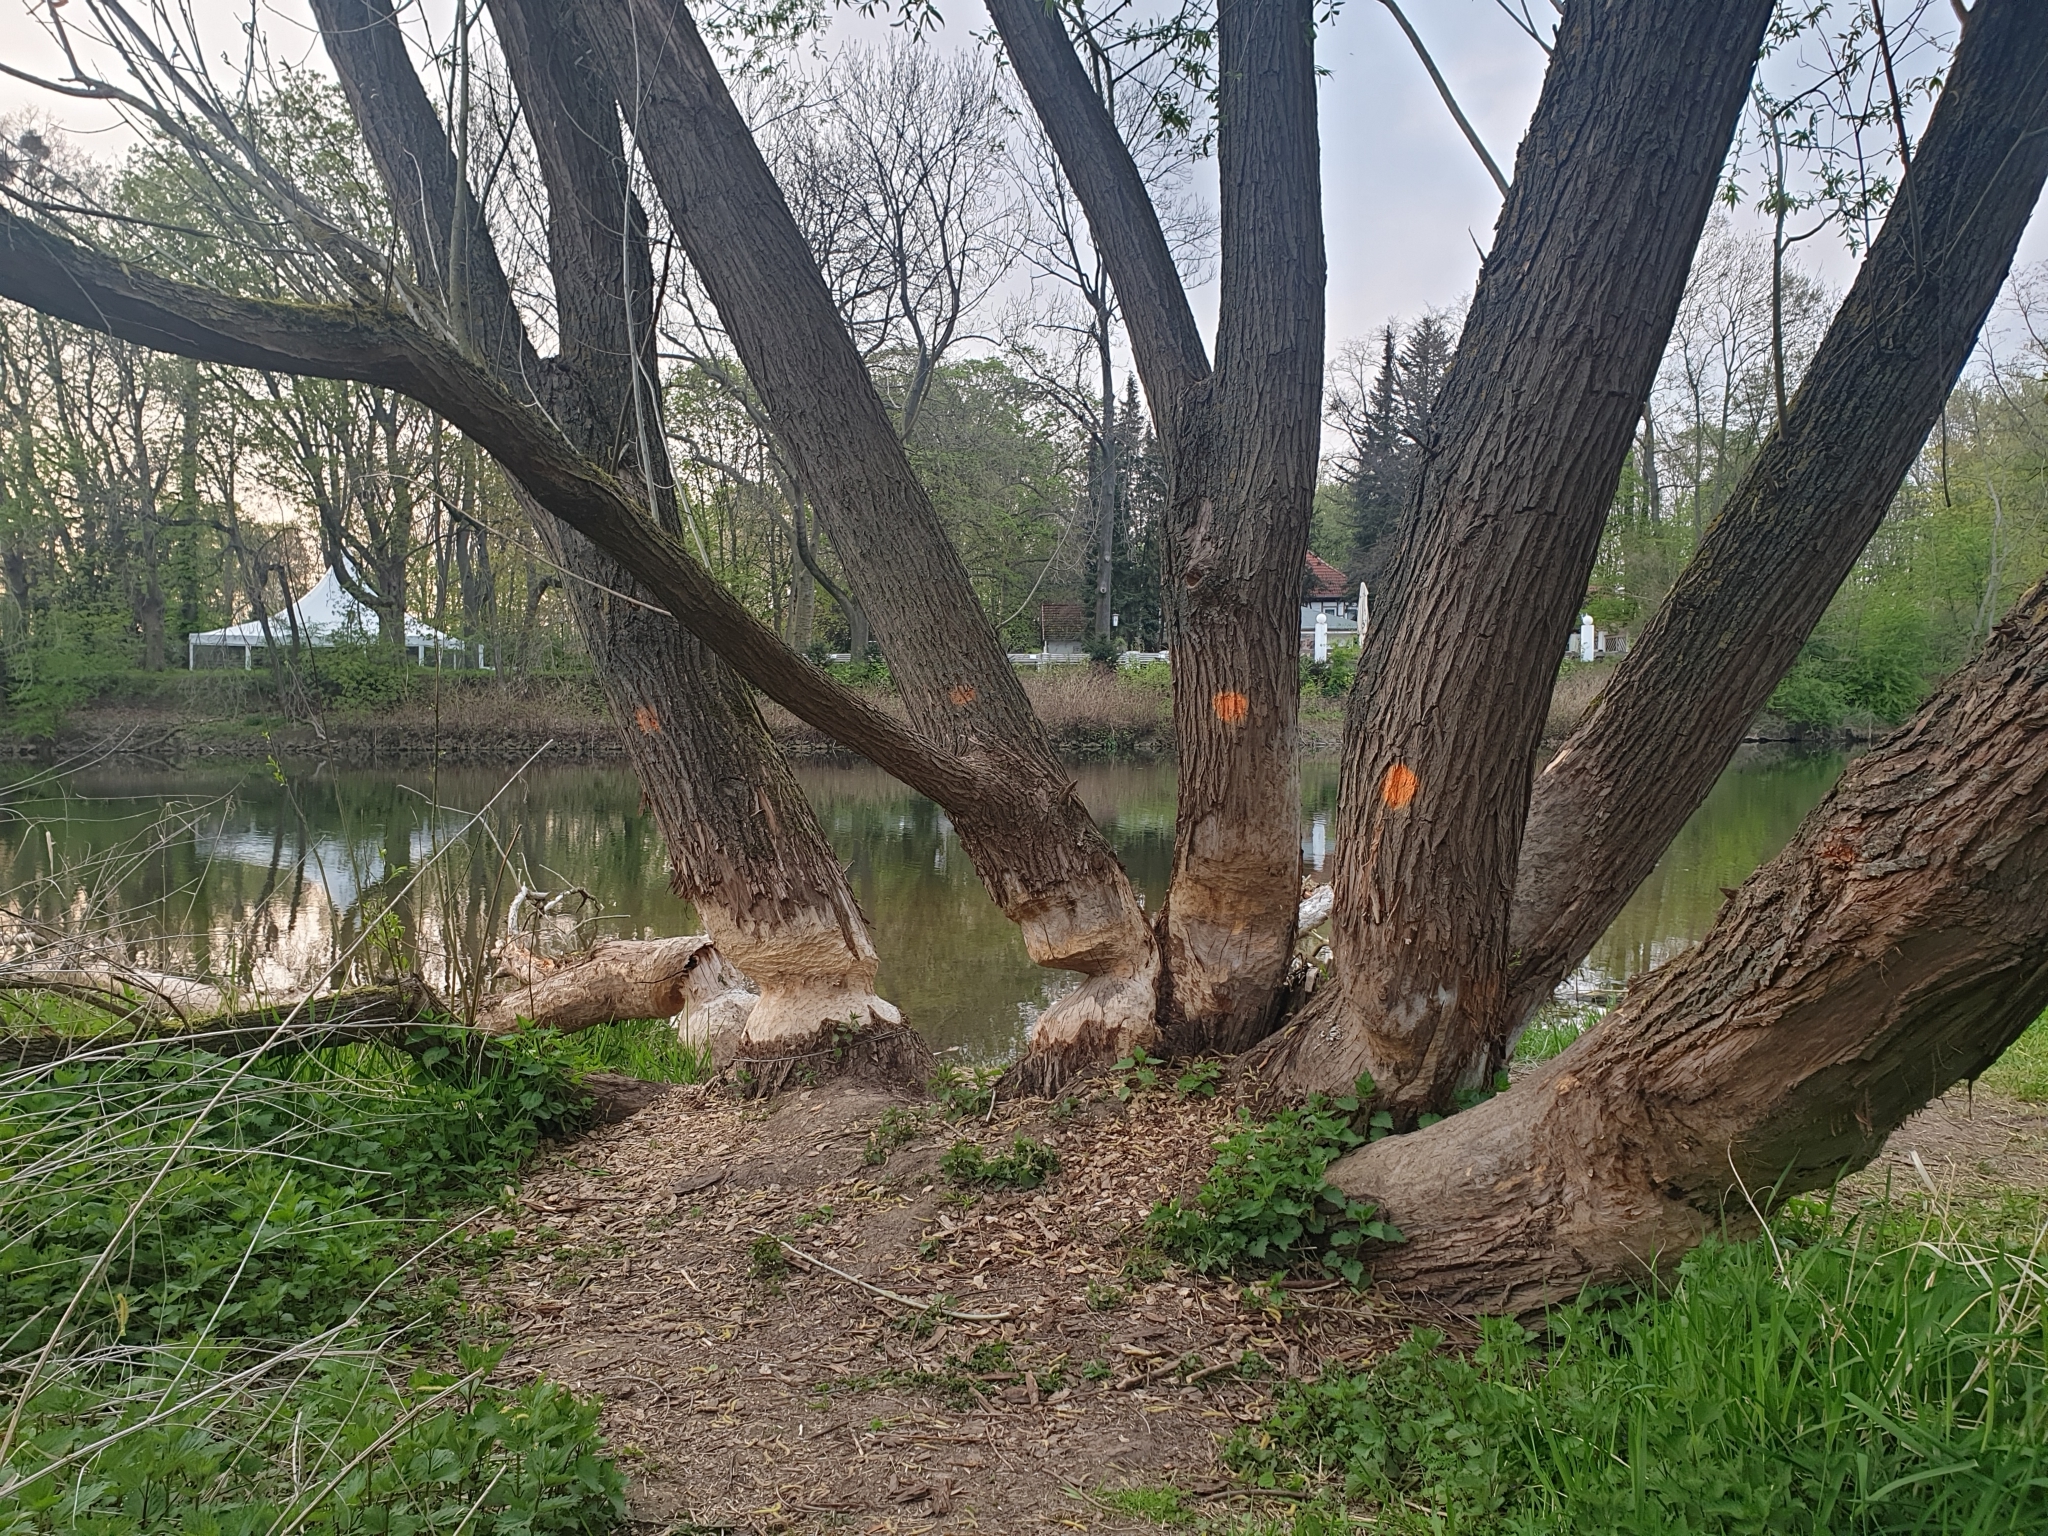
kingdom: Animalia
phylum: Chordata
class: Mammalia
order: Rodentia
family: Castoridae
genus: Castor
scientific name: Castor fiber
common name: Eurasian beaver
